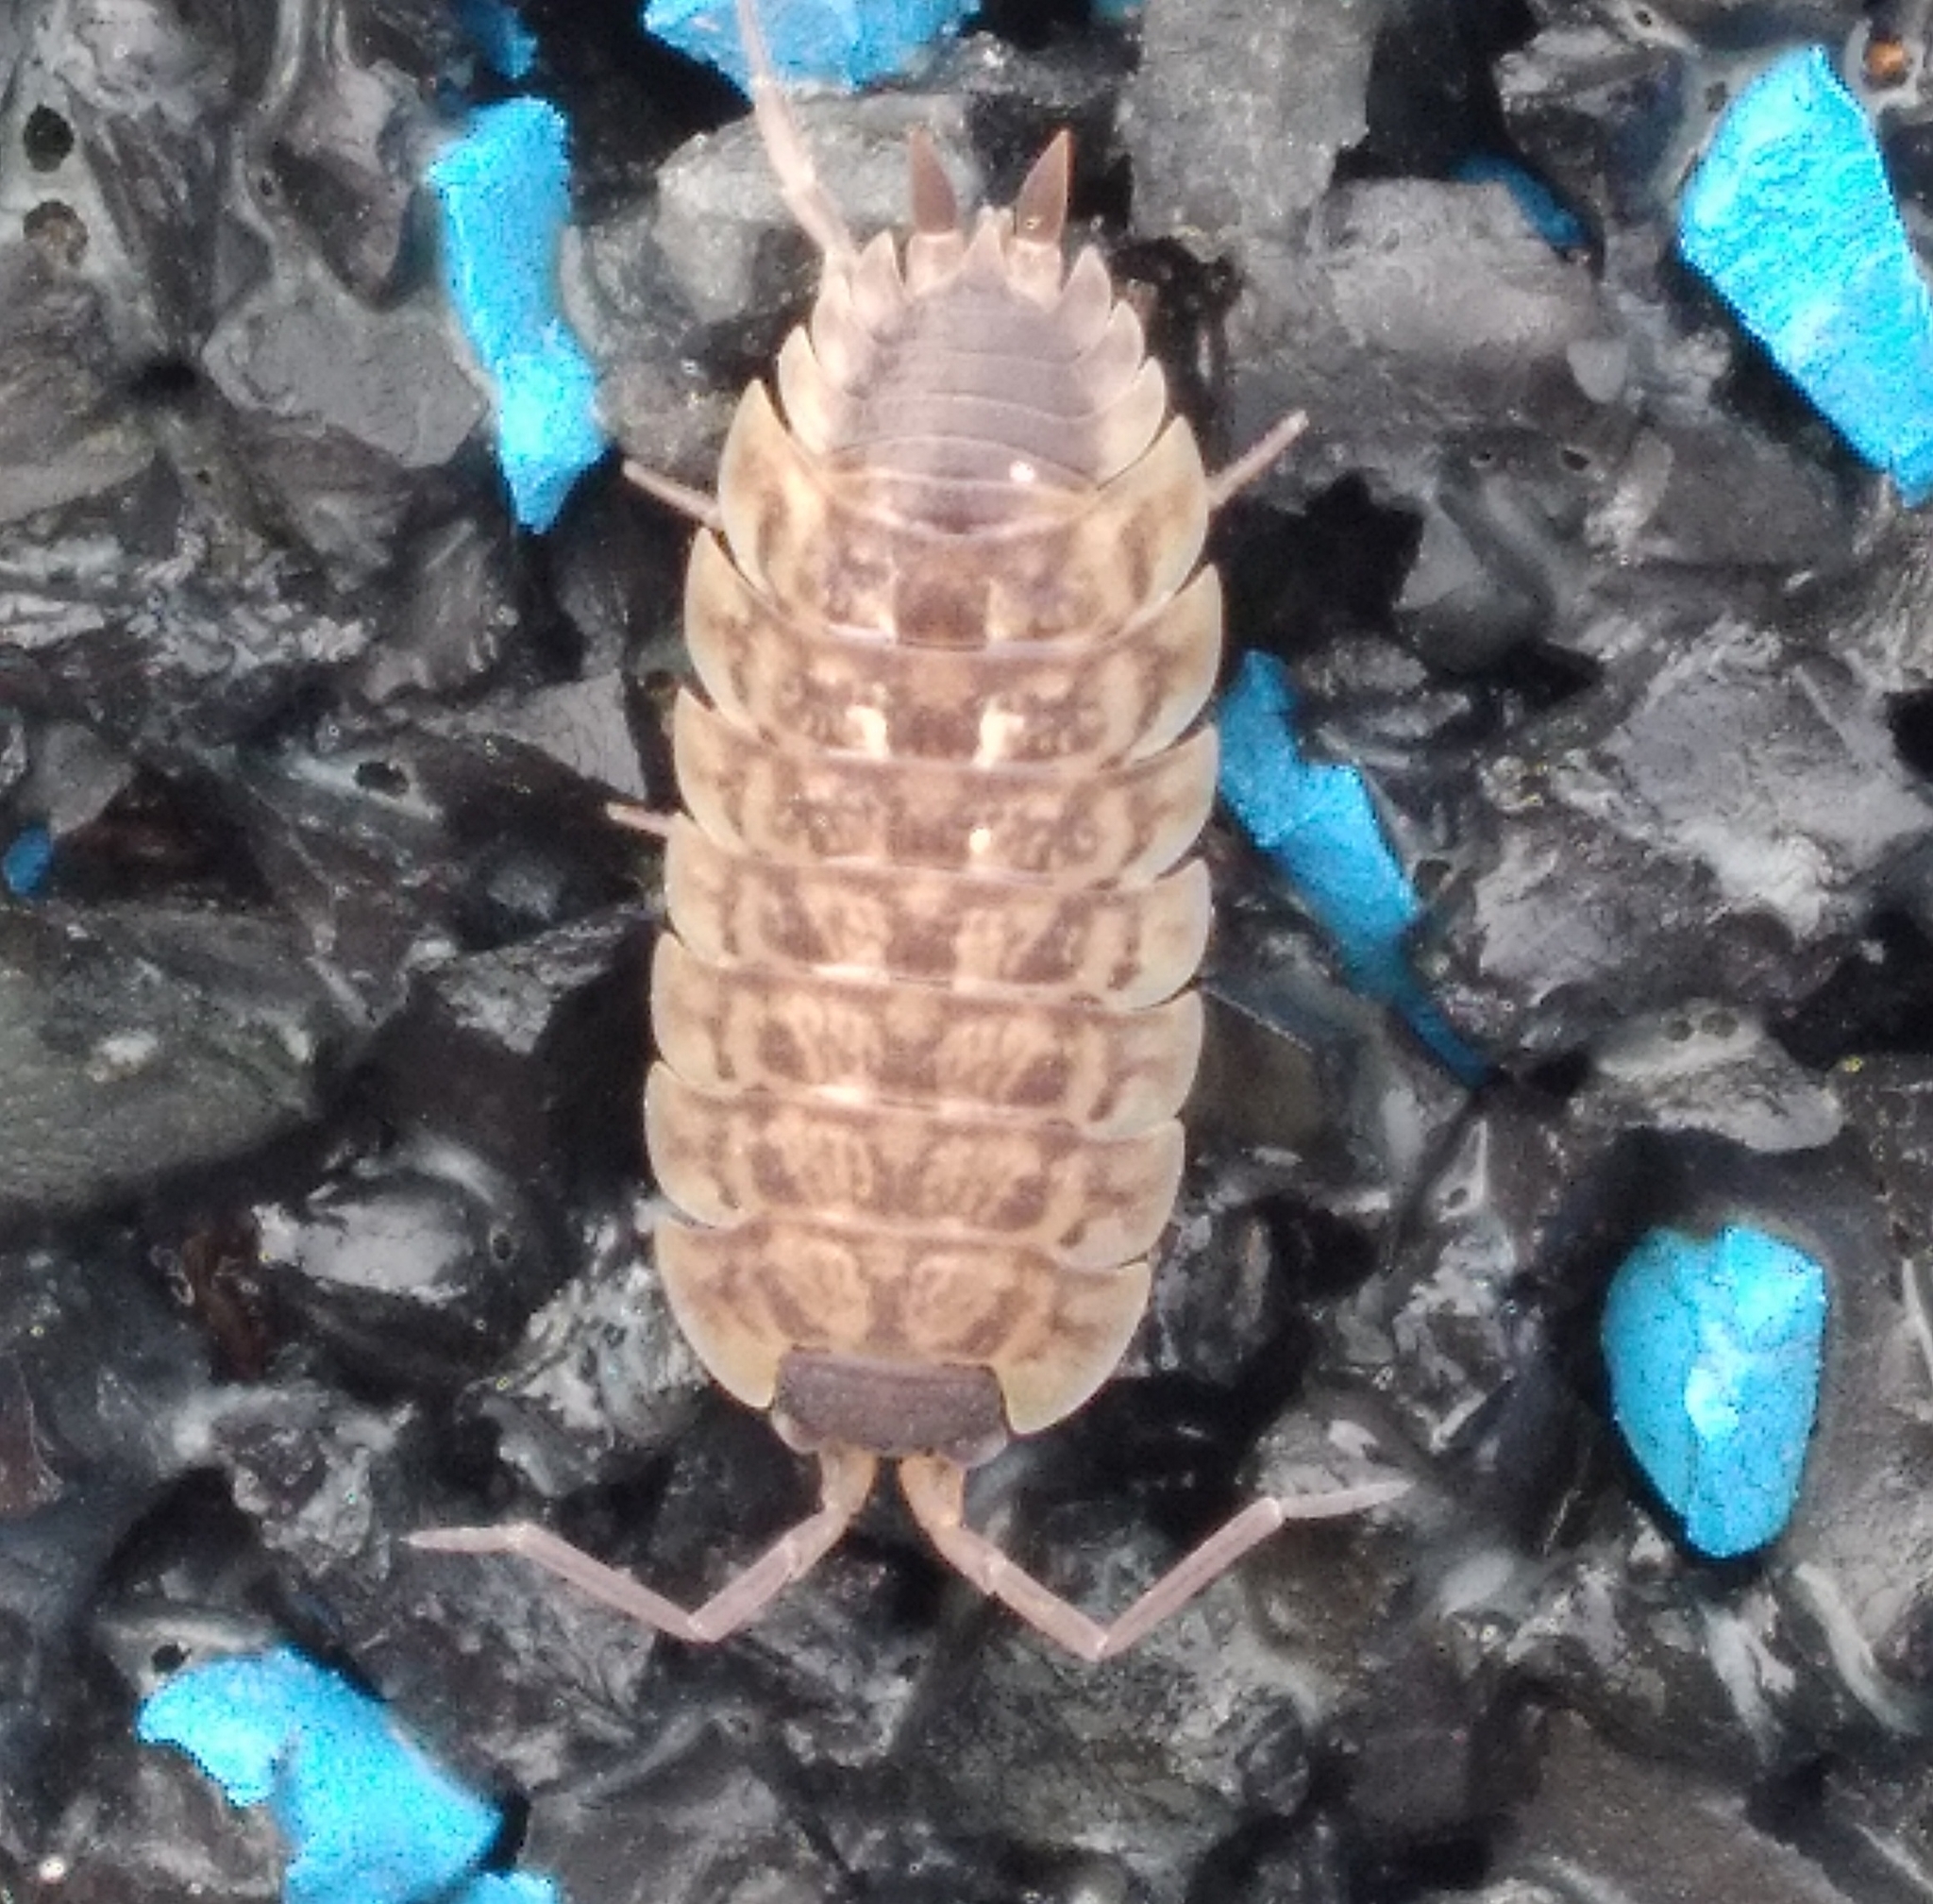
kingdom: Animalia
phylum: Arthropoda
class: Malacostraca
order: Isopoda
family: Porcellionidae
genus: Porcellio
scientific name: Porcellio spinicornis
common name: Painted woodlouse
